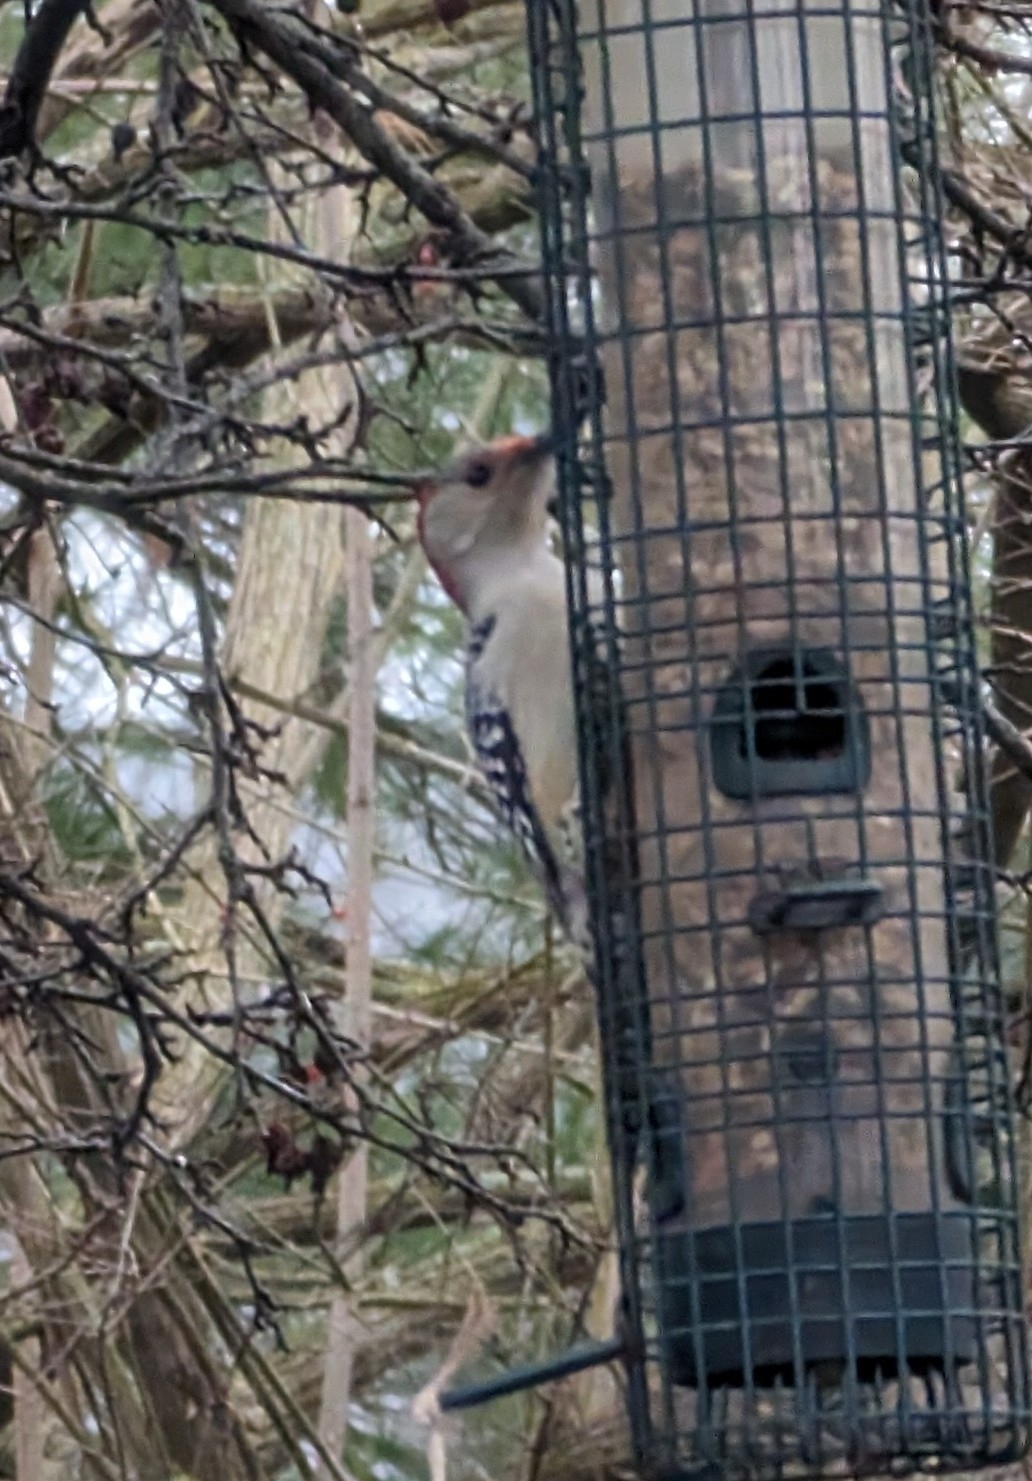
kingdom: Animalia
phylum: Chordata
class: Aves
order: Piciformes
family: Picidae
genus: Melanerpes
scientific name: Melanerpes carolinus
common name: Red-bellied woodpecker
